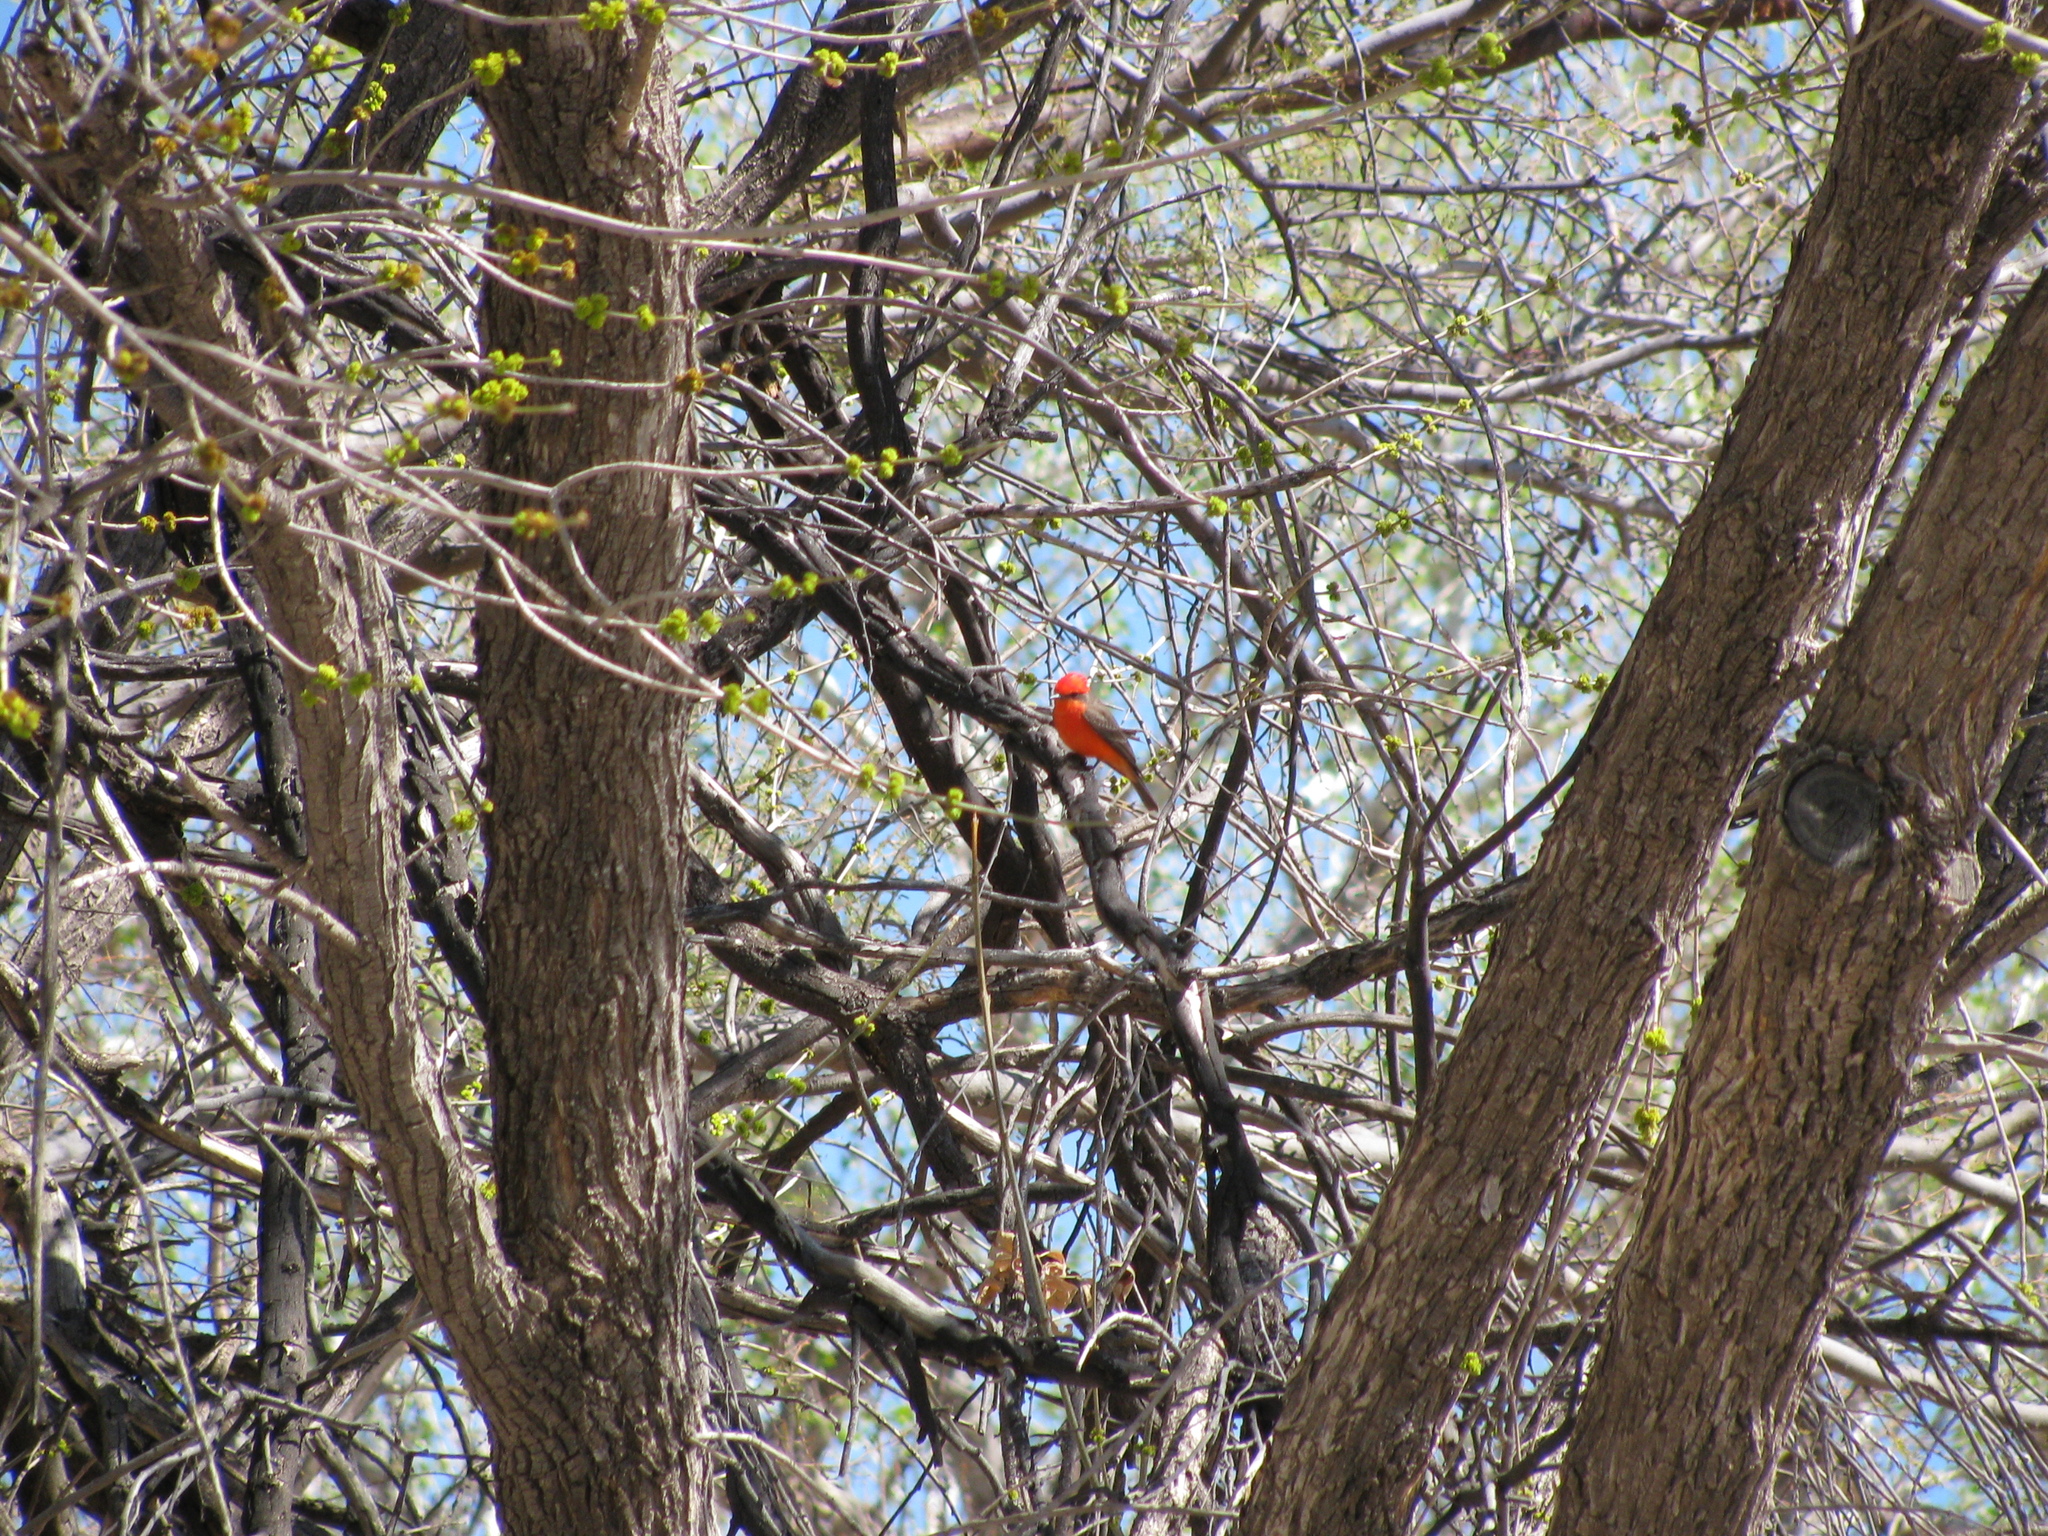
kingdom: Animalia
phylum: Chordata
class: Aves
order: Passeriformes
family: Tyrannidae
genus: Pyrocephalus
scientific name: Pyrocephalus rubinus
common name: Vermilion flycatcher
